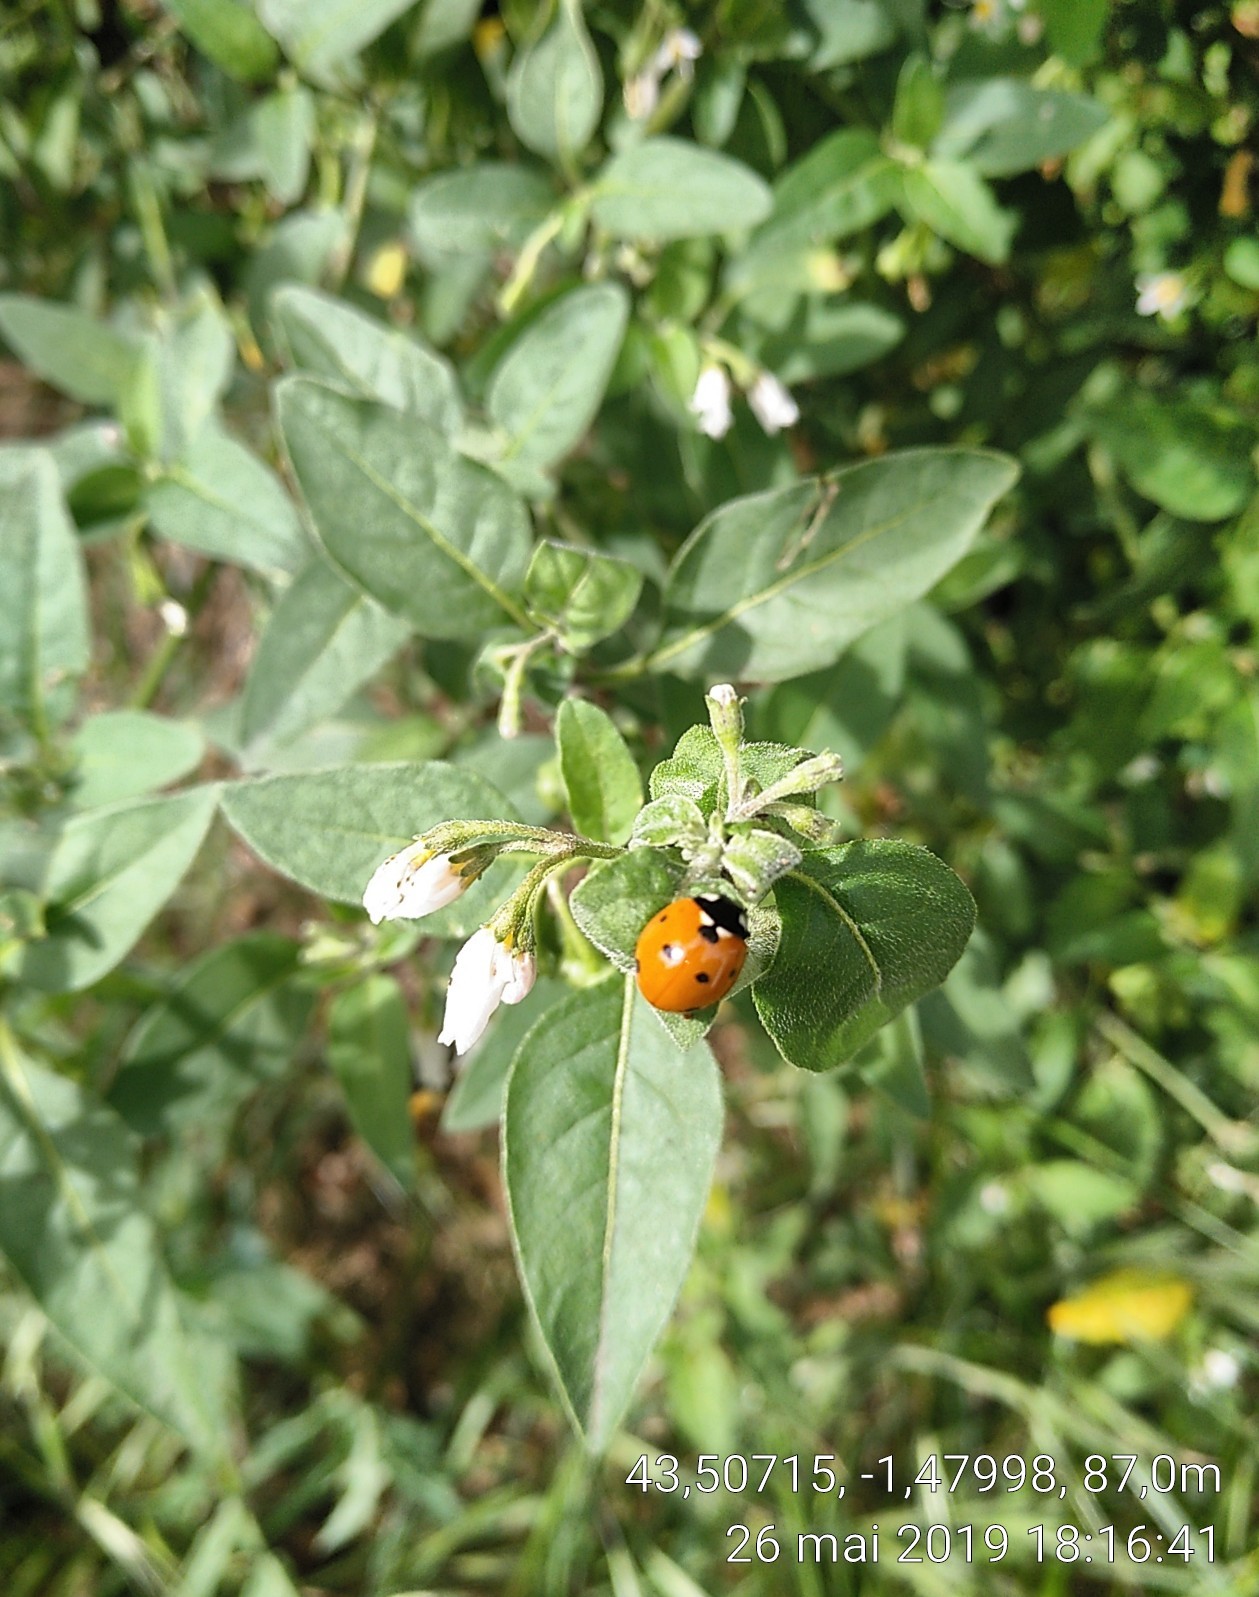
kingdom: Animalia
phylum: Arthropoda
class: Insecta
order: Coleoptera
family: Coccinellidae
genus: Coccinella
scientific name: Coccinella septempunctata
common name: Sevenspotted lady beetle
